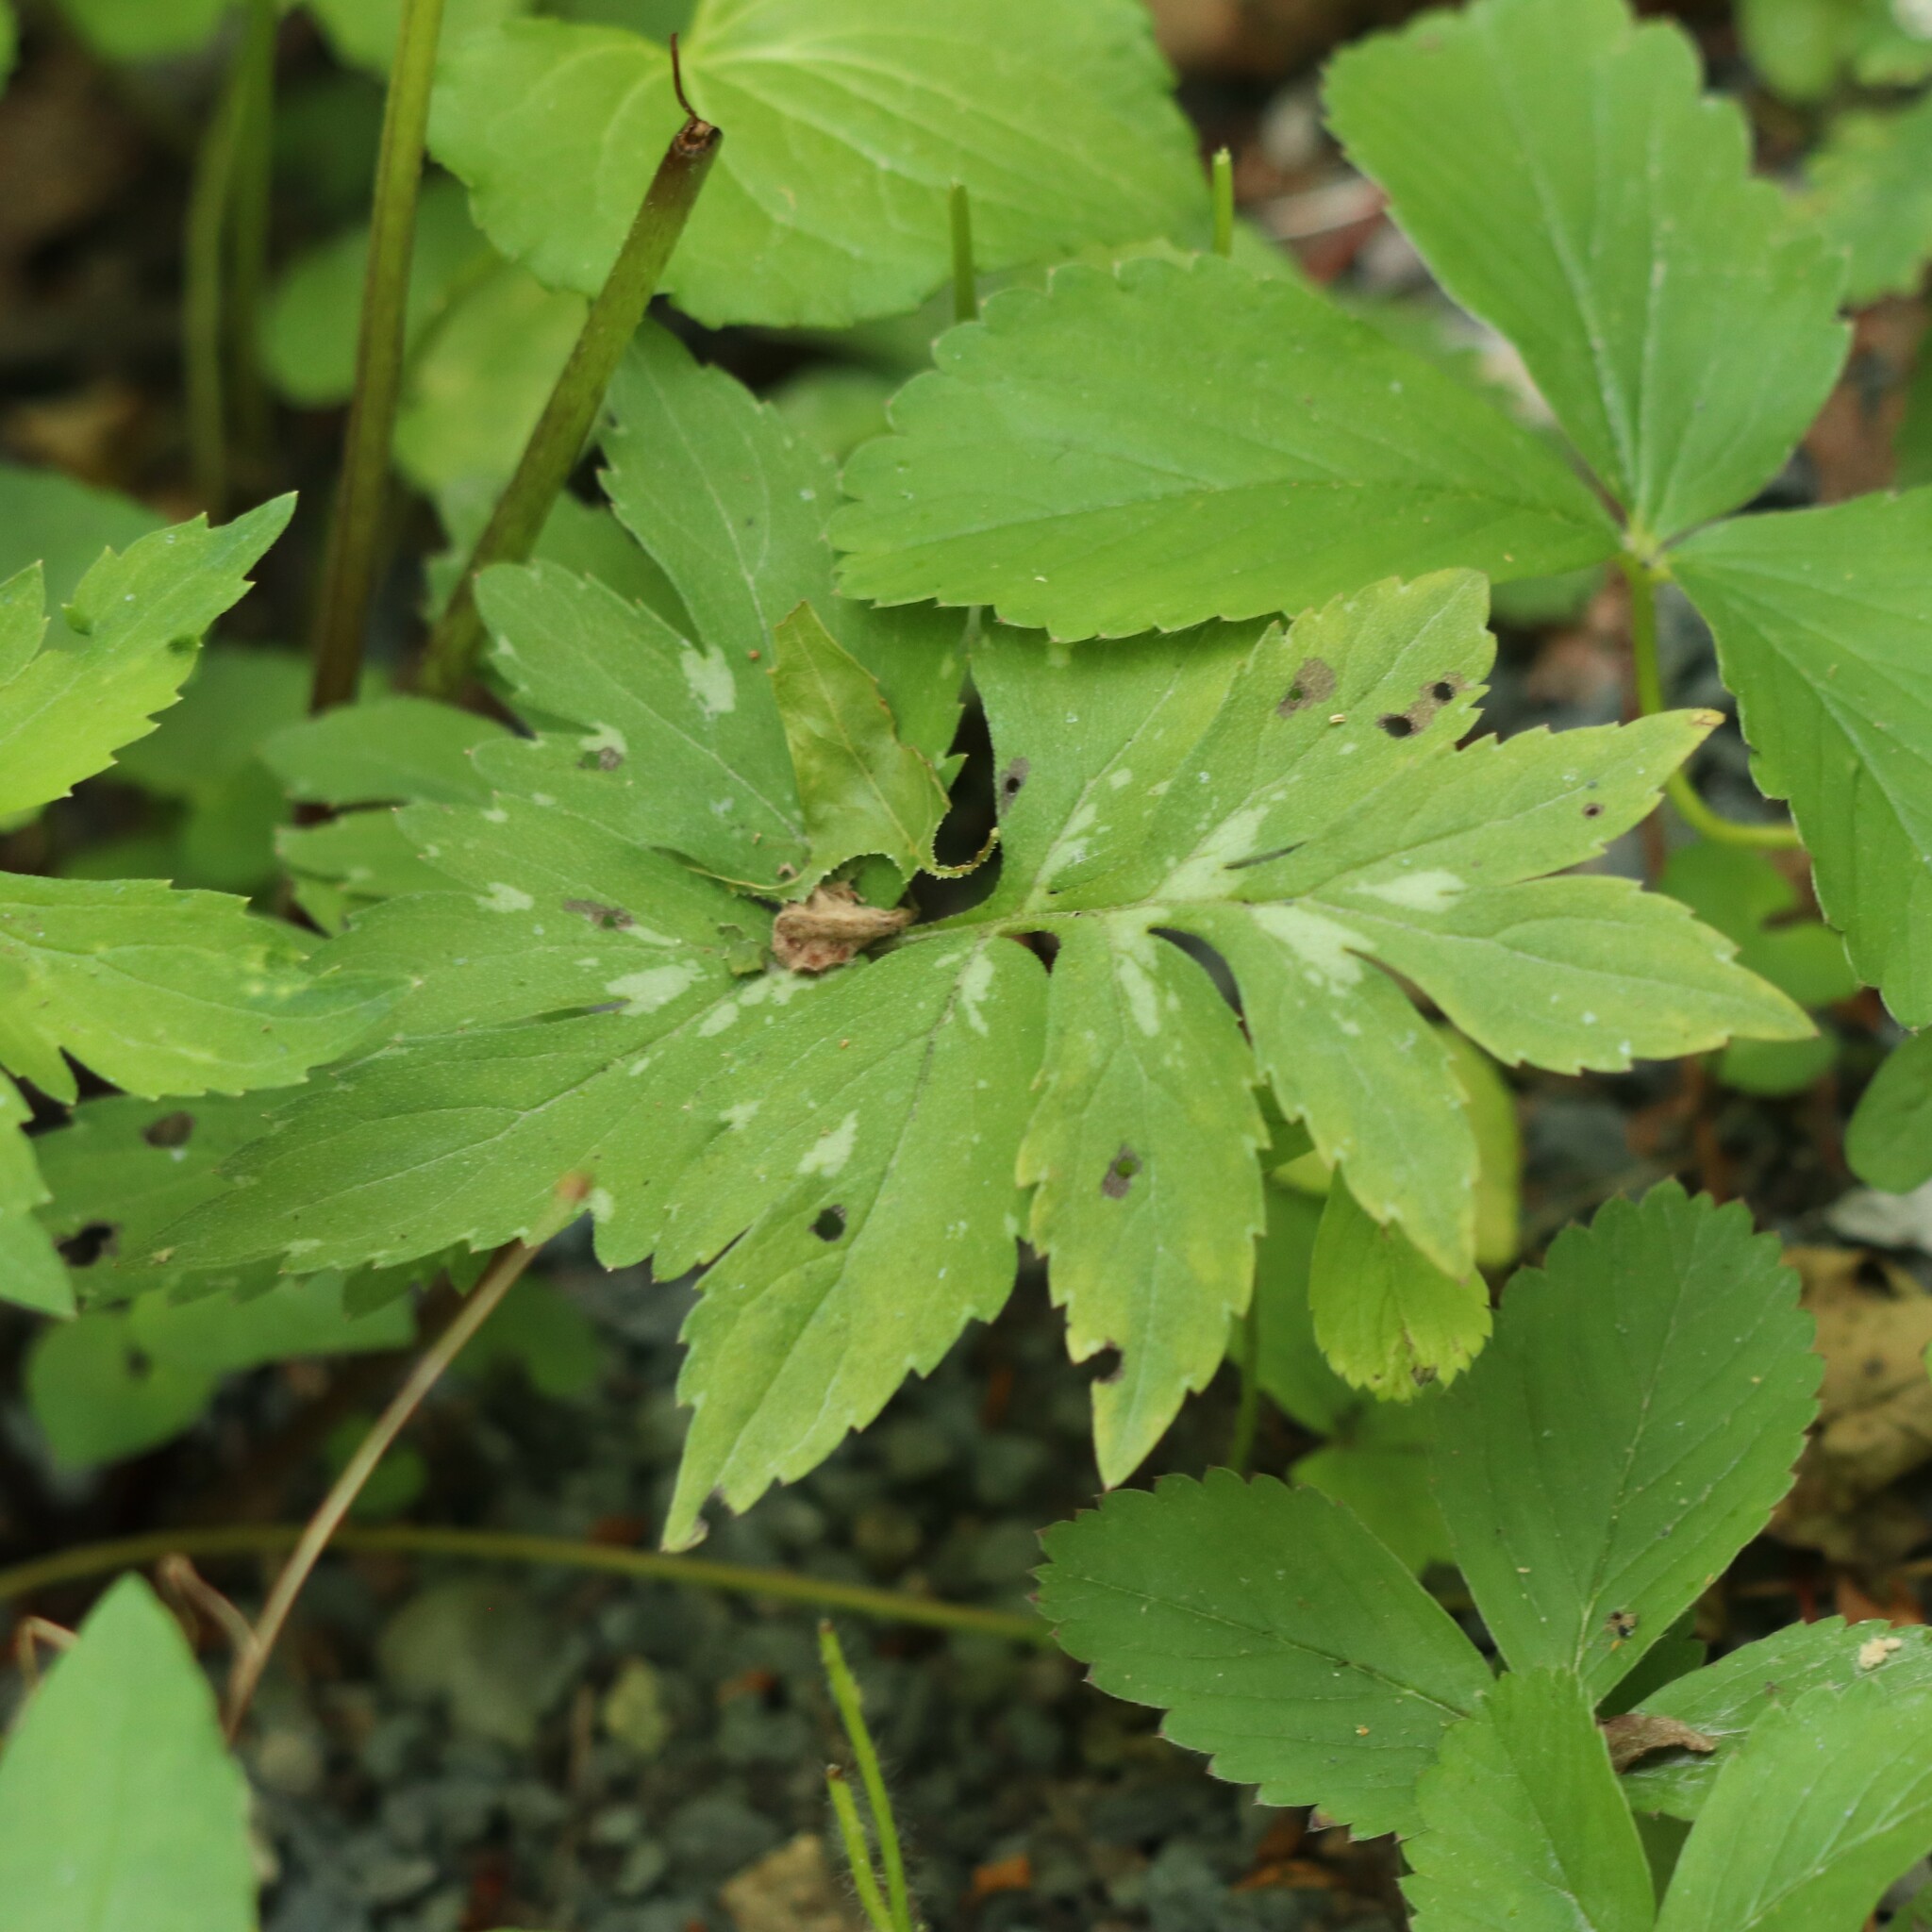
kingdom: Plantae
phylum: Tracheophyta
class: Magnoliopsida
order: Boraginales
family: Hydrophyllaceae
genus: Hydrophyllum
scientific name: Hydrophyllum virginianum
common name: Virginia waterleaf
